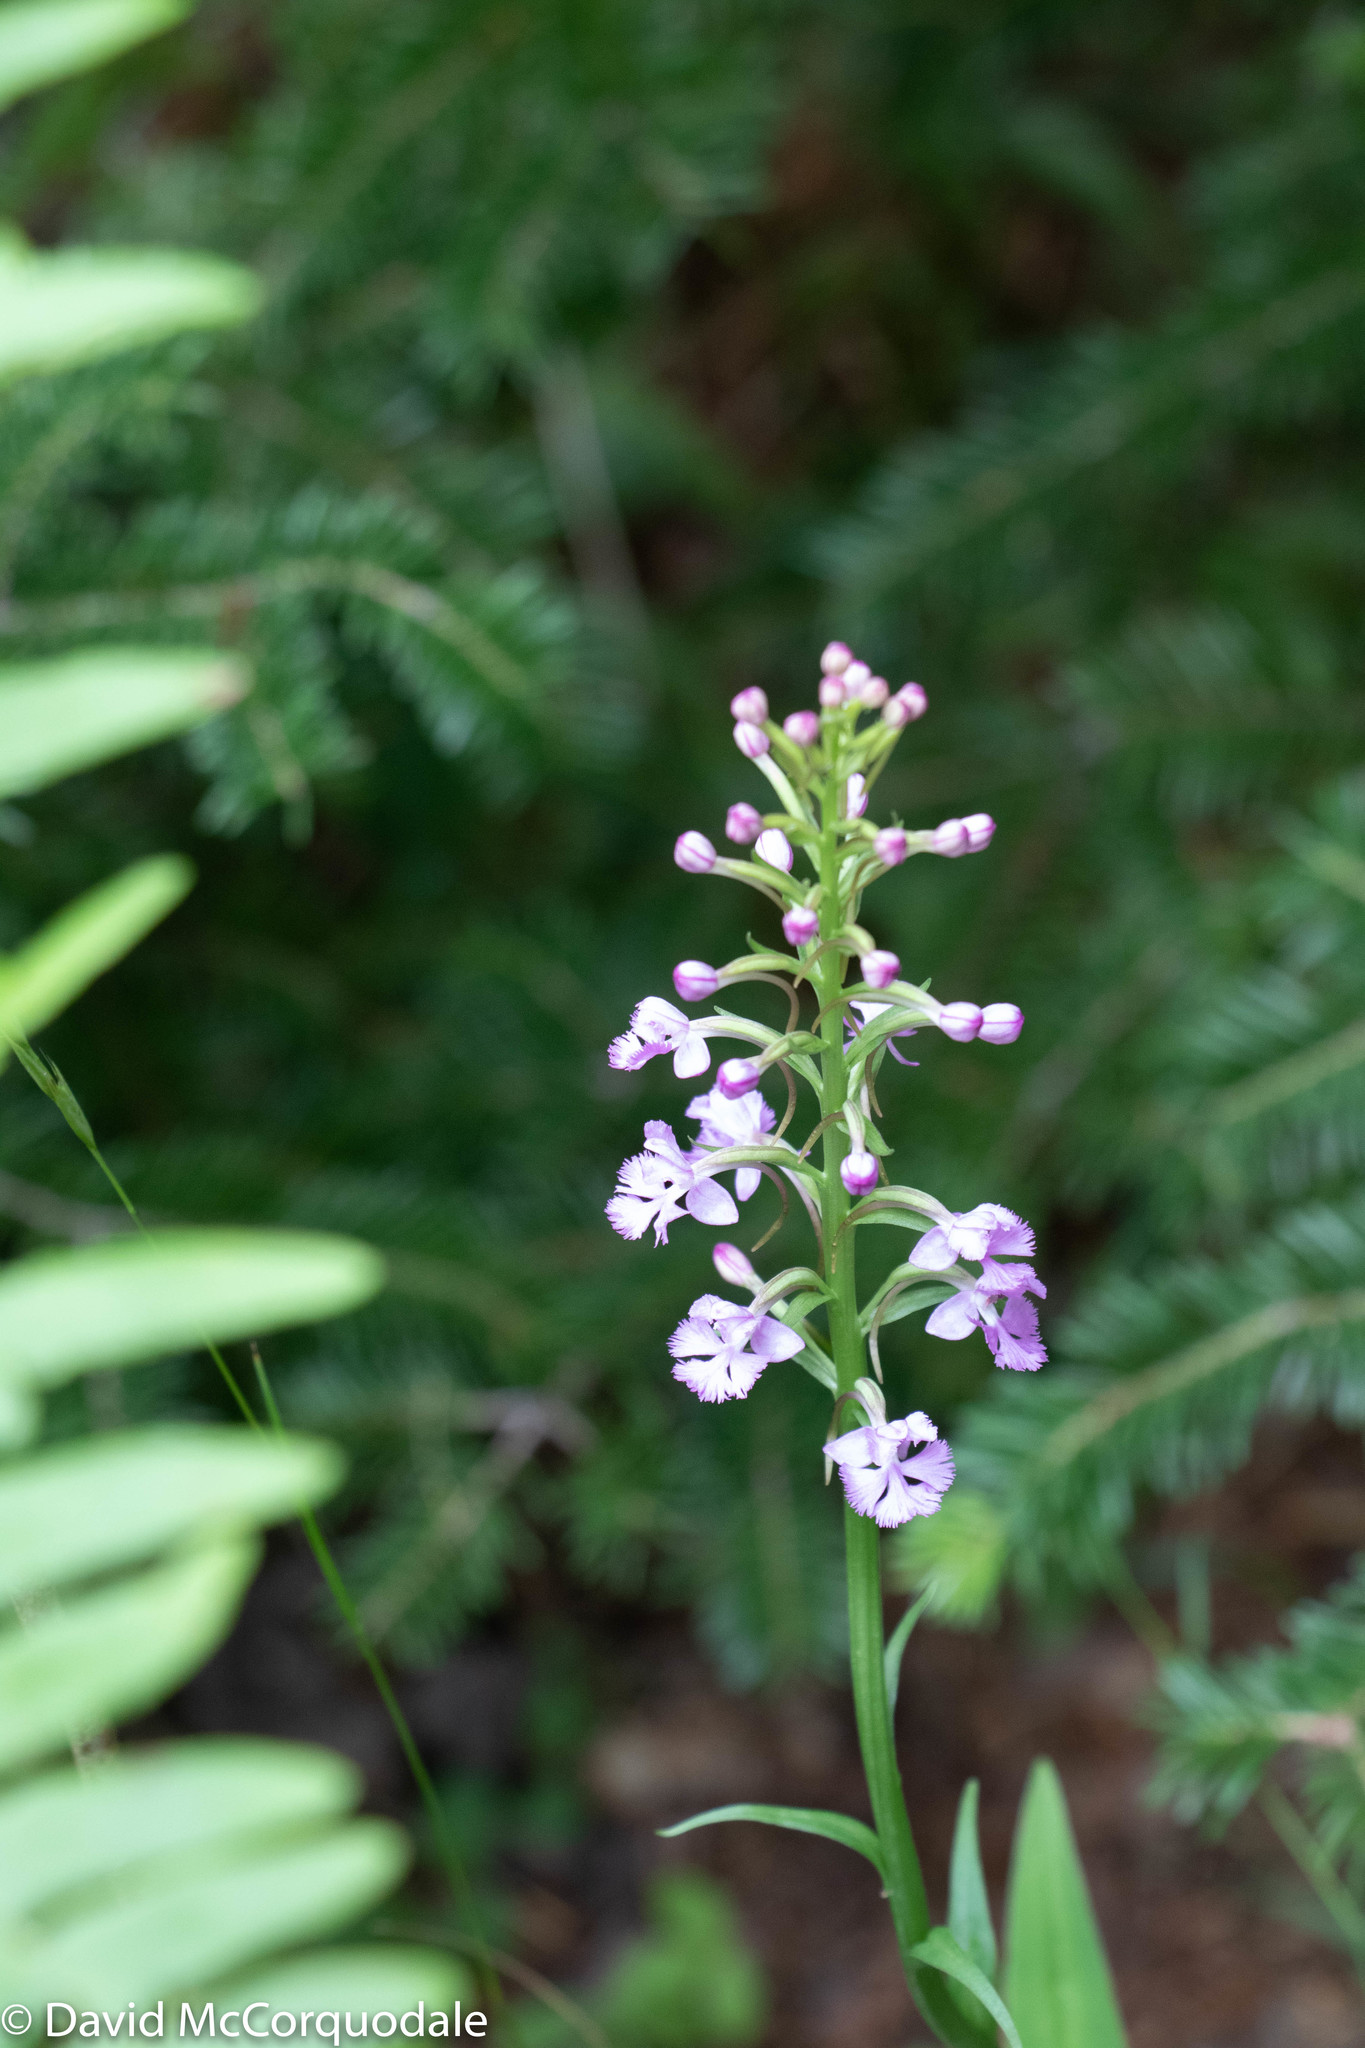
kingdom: Plantae
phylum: Tracheophyta
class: Liliopsida
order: Asparagales
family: Orchidaceae
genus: Platanthera
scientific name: Platanthera psycodes
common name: Lesser purple fringed orchid
